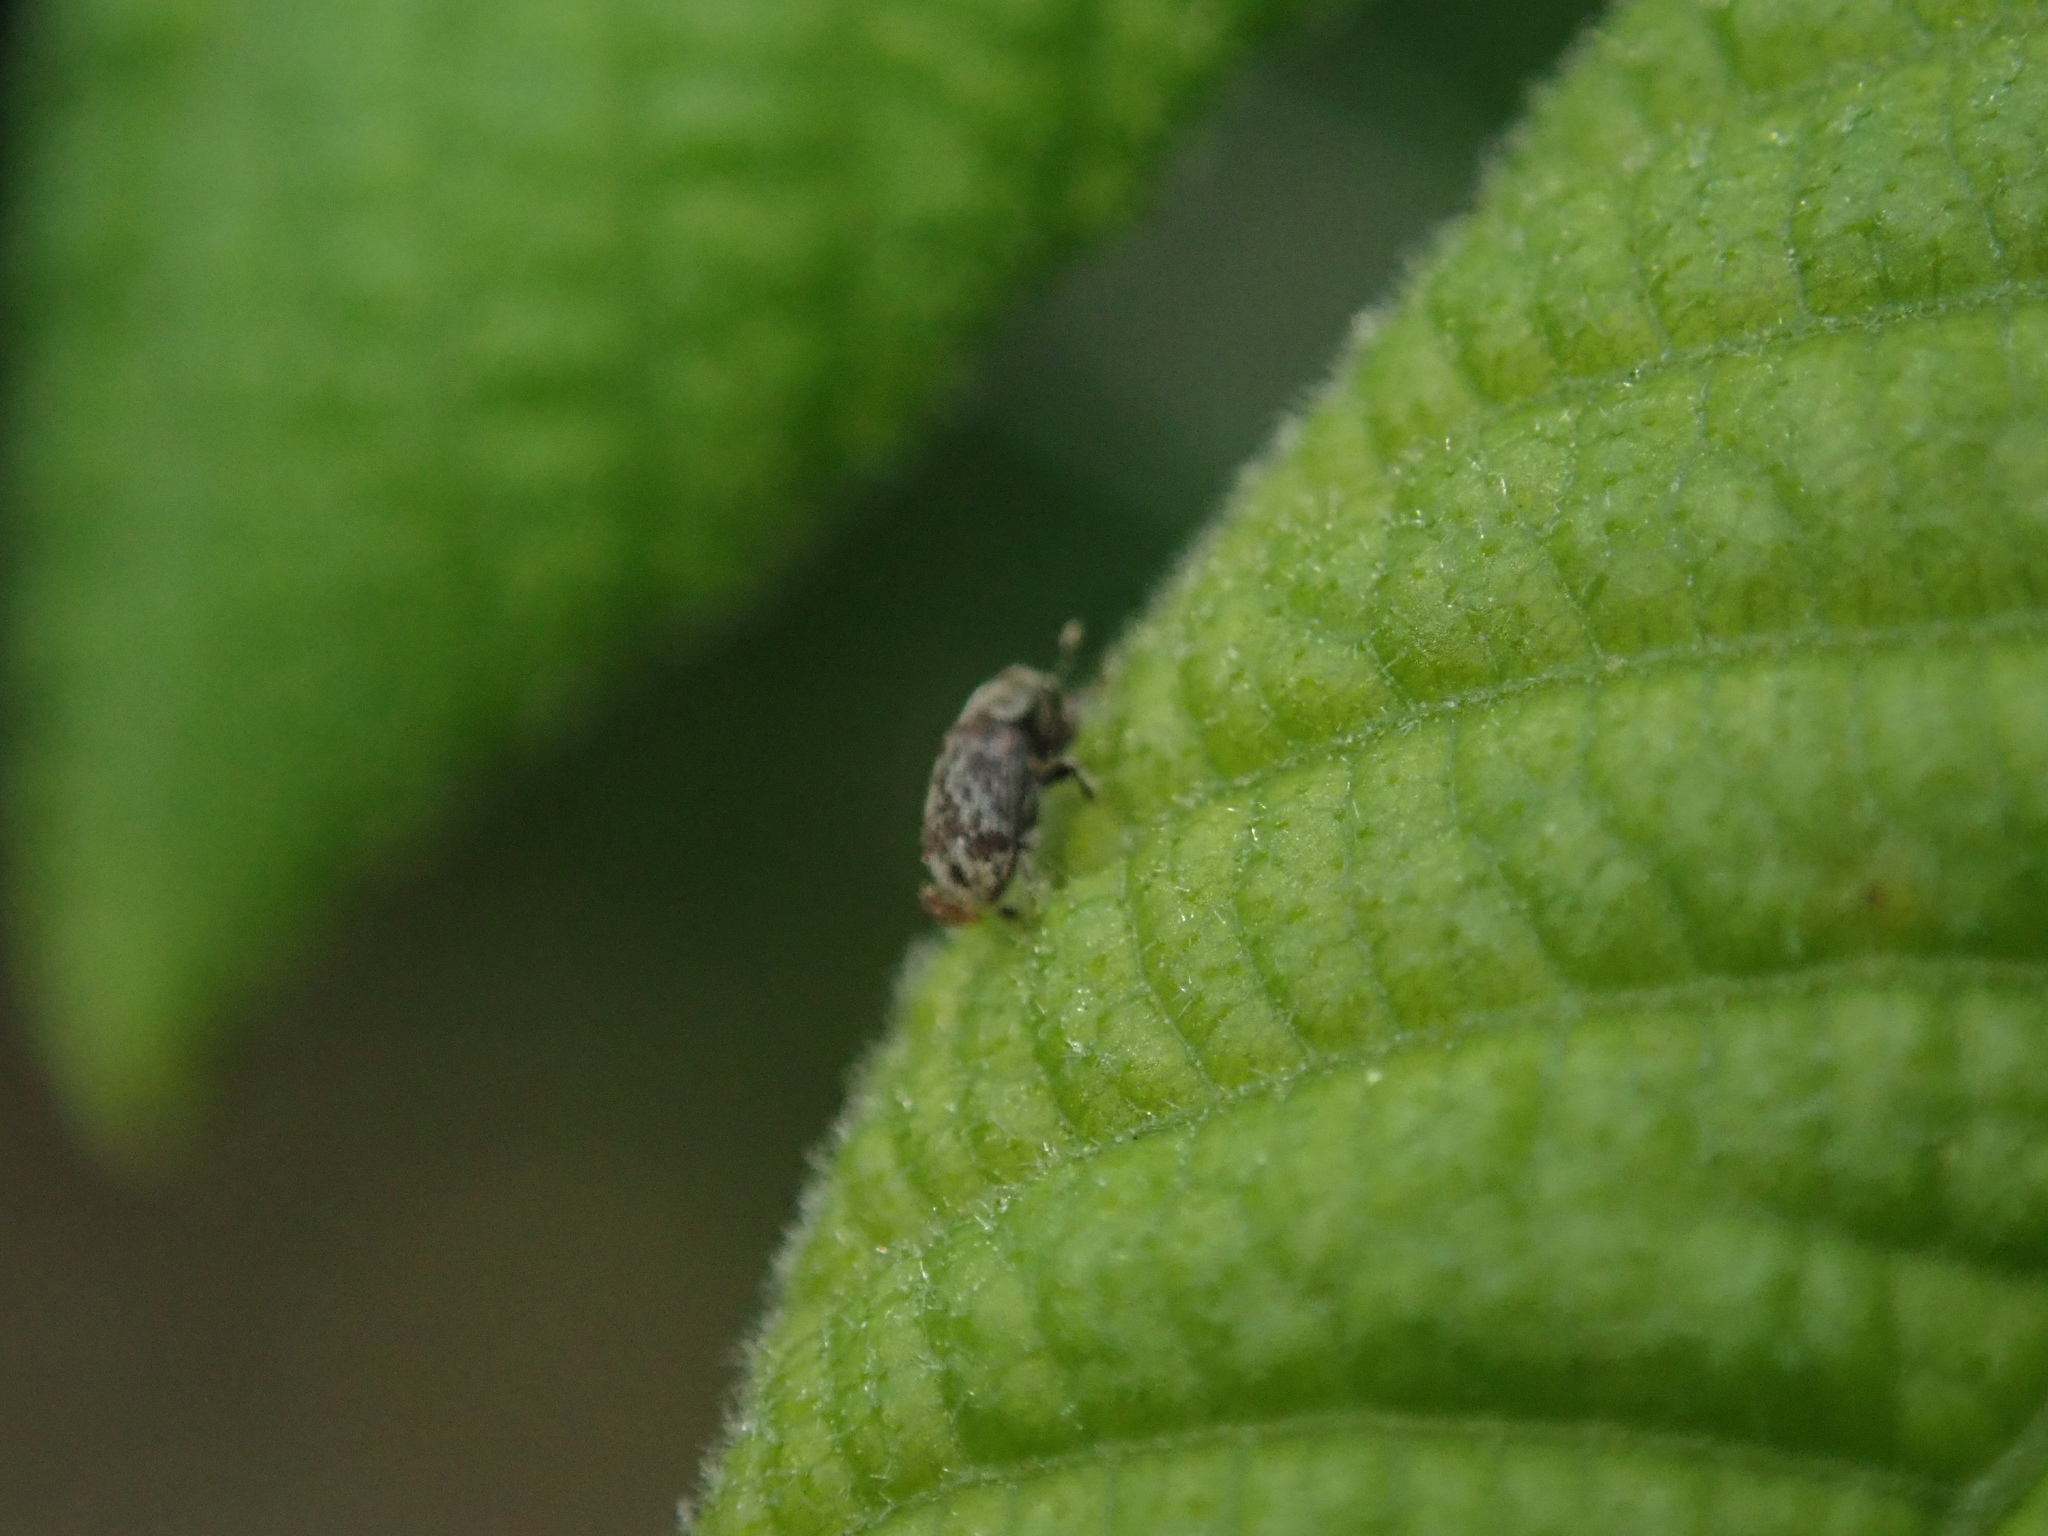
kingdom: Animalia
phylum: Arthropoda
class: Insecta
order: Coleoptera
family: Curculionidae
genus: Chaetoptelius
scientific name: Chaetoptelius mundulus
